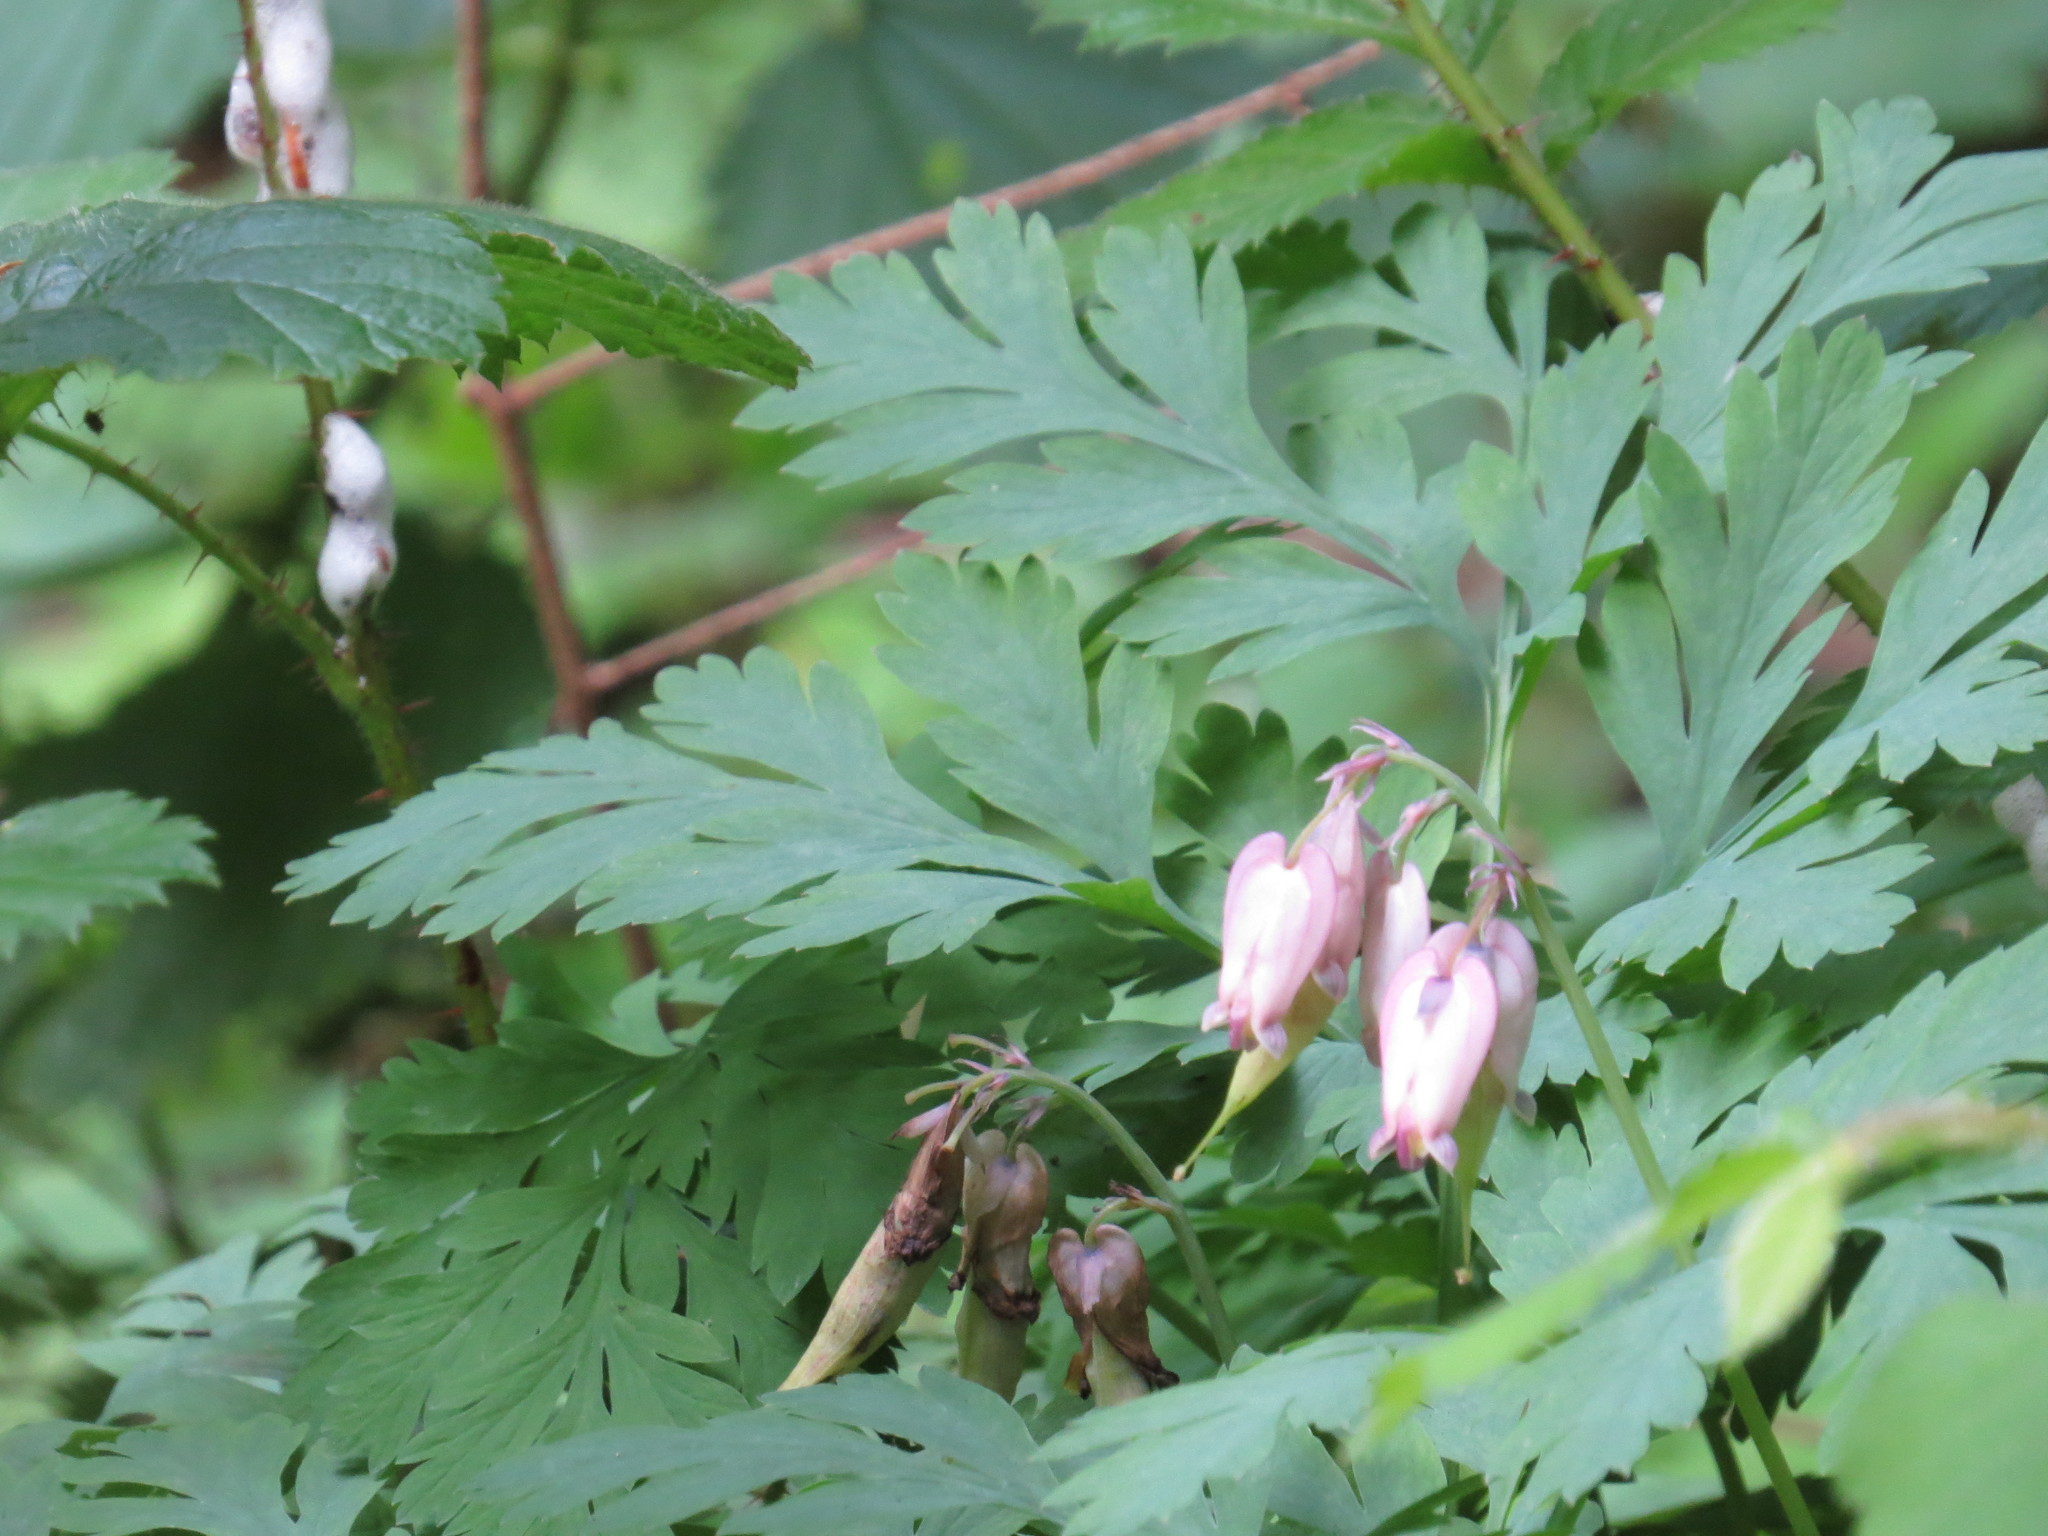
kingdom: Plantae
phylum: Tracheophyta
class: Magnoliopsida
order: Ranunculales
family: Papaveraceae
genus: Dicentra
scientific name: Dicentra formosa
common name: Bleeding-heart
